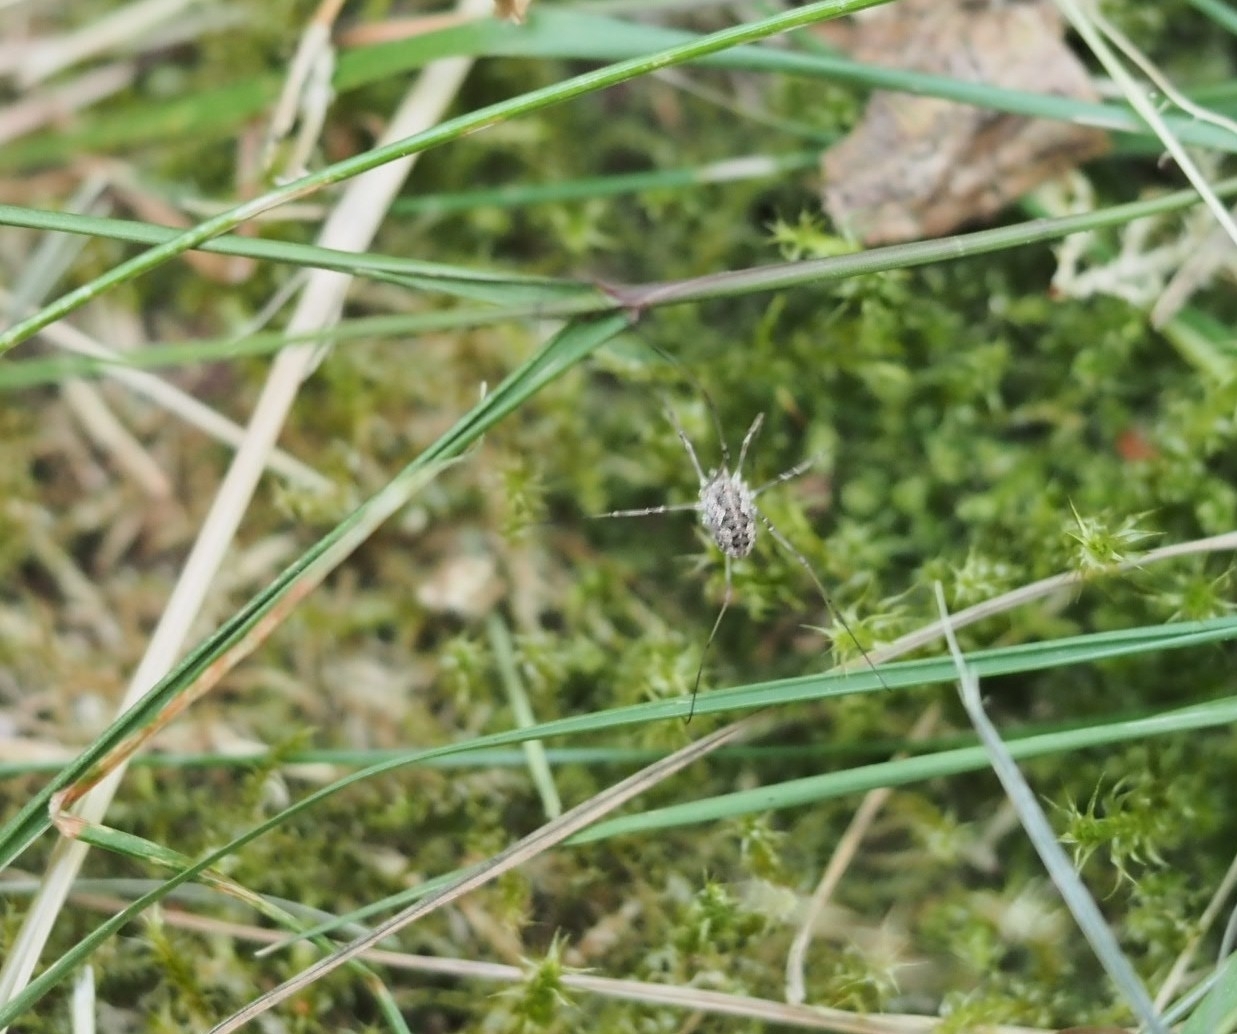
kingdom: Animalia
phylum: Arthropoda
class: Arachnida
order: Opiliones
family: Phalangiidae
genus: Phalangium
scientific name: Phalangium opilio
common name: Daddy longleg
